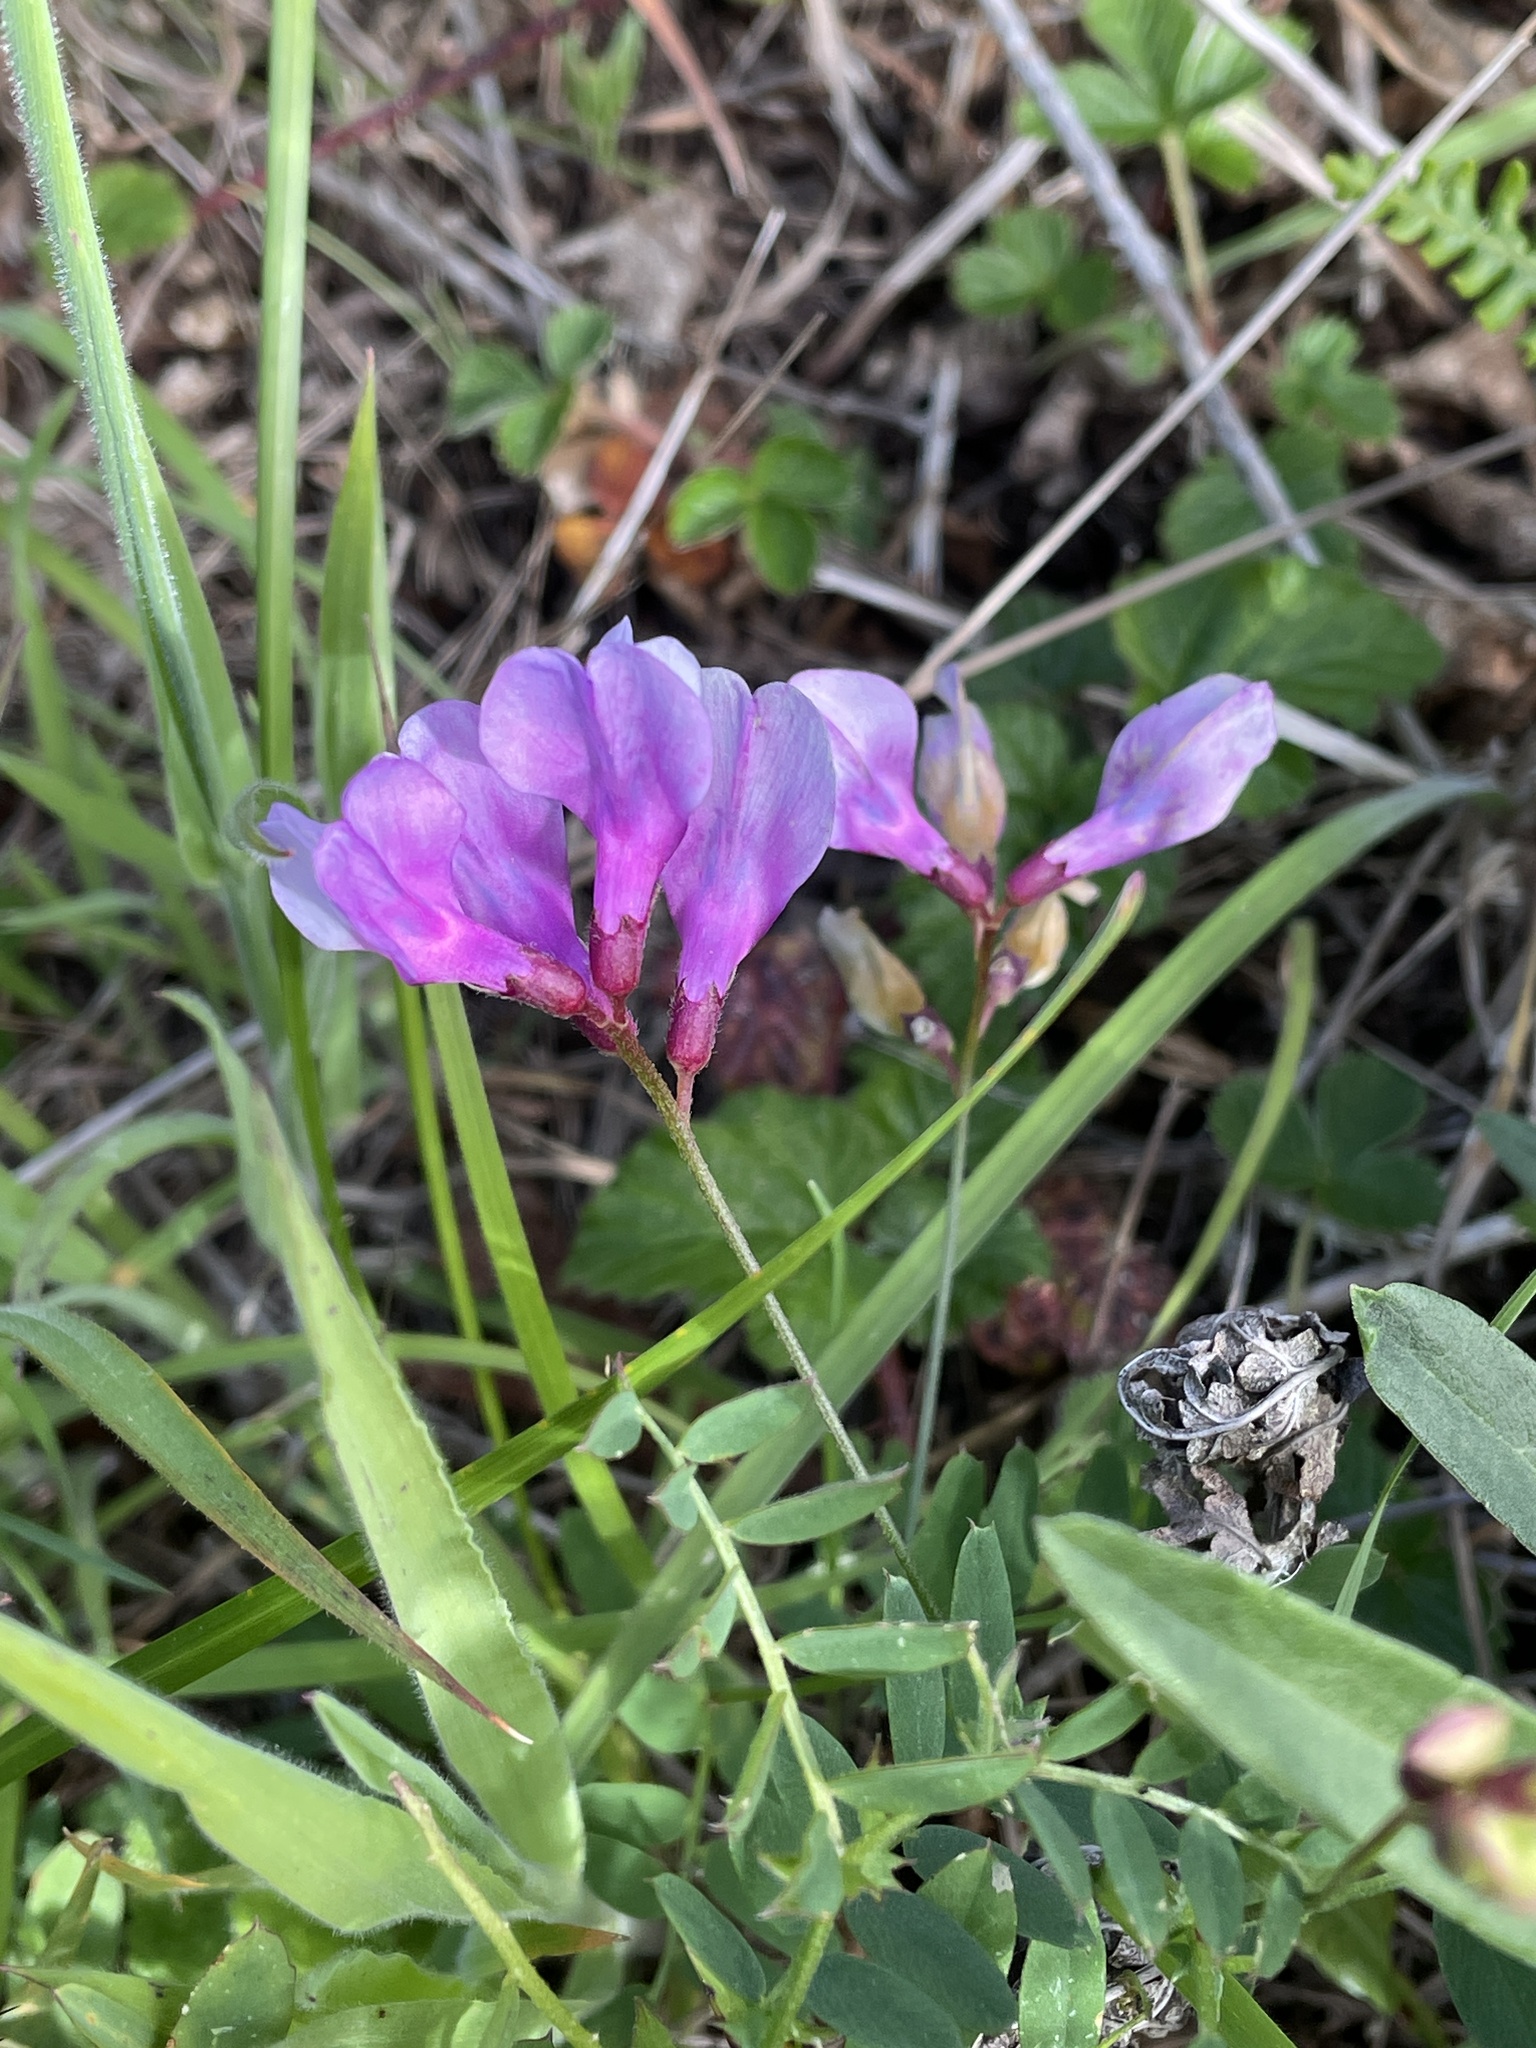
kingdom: Plantae
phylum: Tracheophyta
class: Magnoliopsida
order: Fabales
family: Fabaceae
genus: Vicia
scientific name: Vicia americana
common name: American vetch
